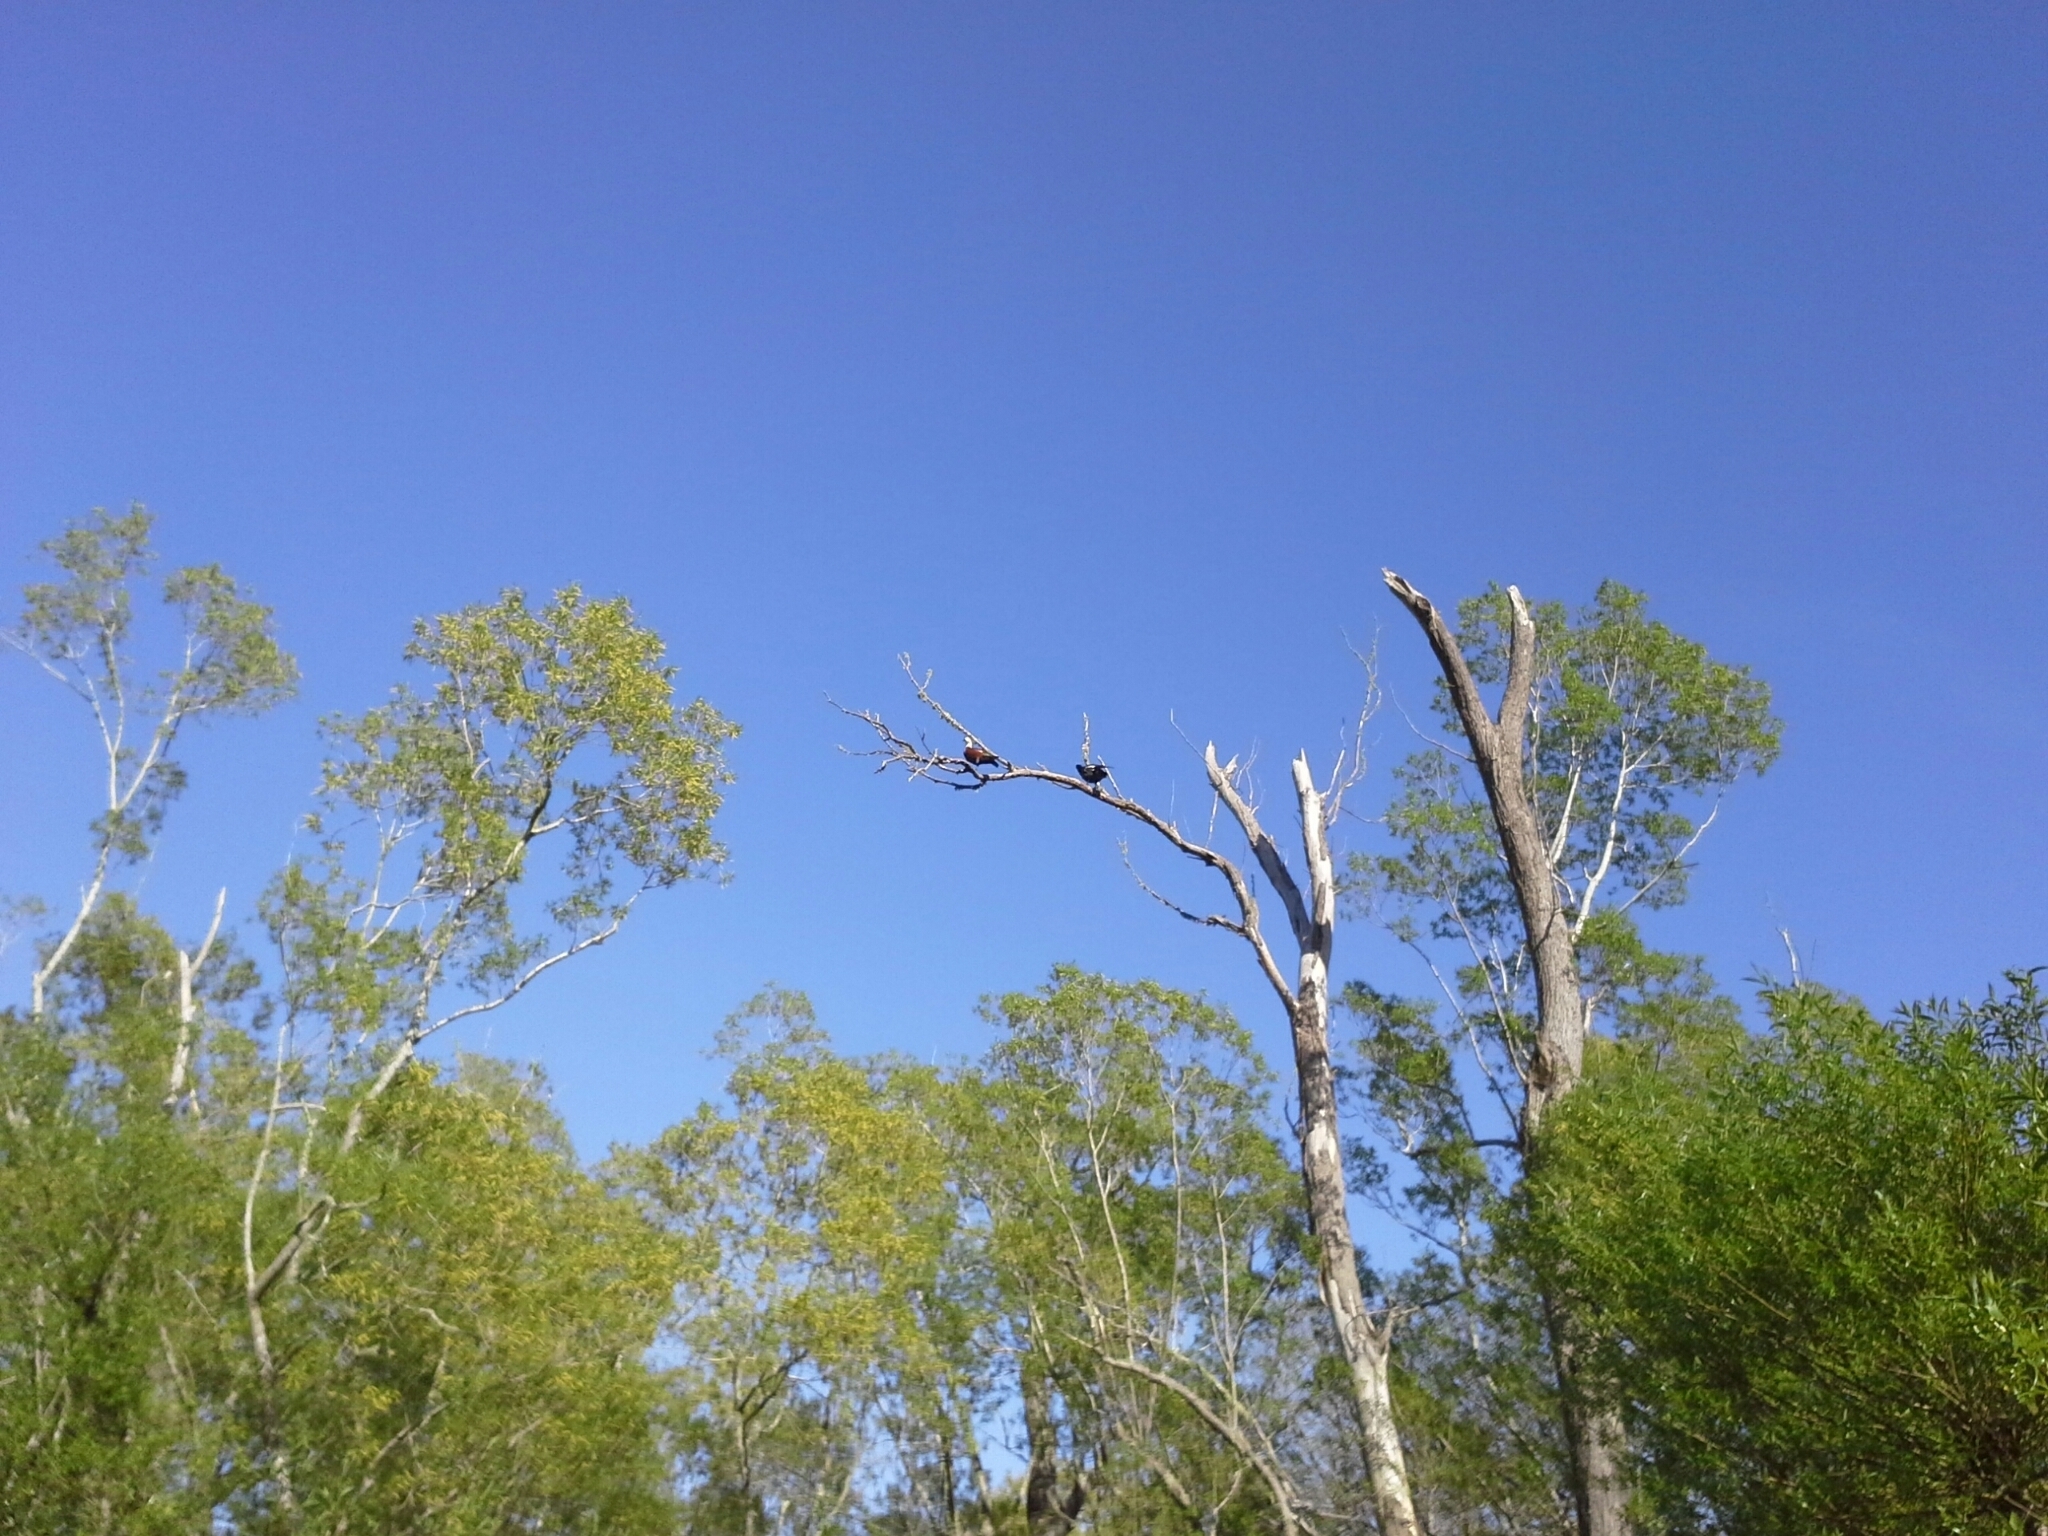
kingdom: Animalia
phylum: Chordata
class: Aves
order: Anseriformes
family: Anatidae
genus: Tadorna
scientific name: Tadorna variegata
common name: Paradise shelduck
